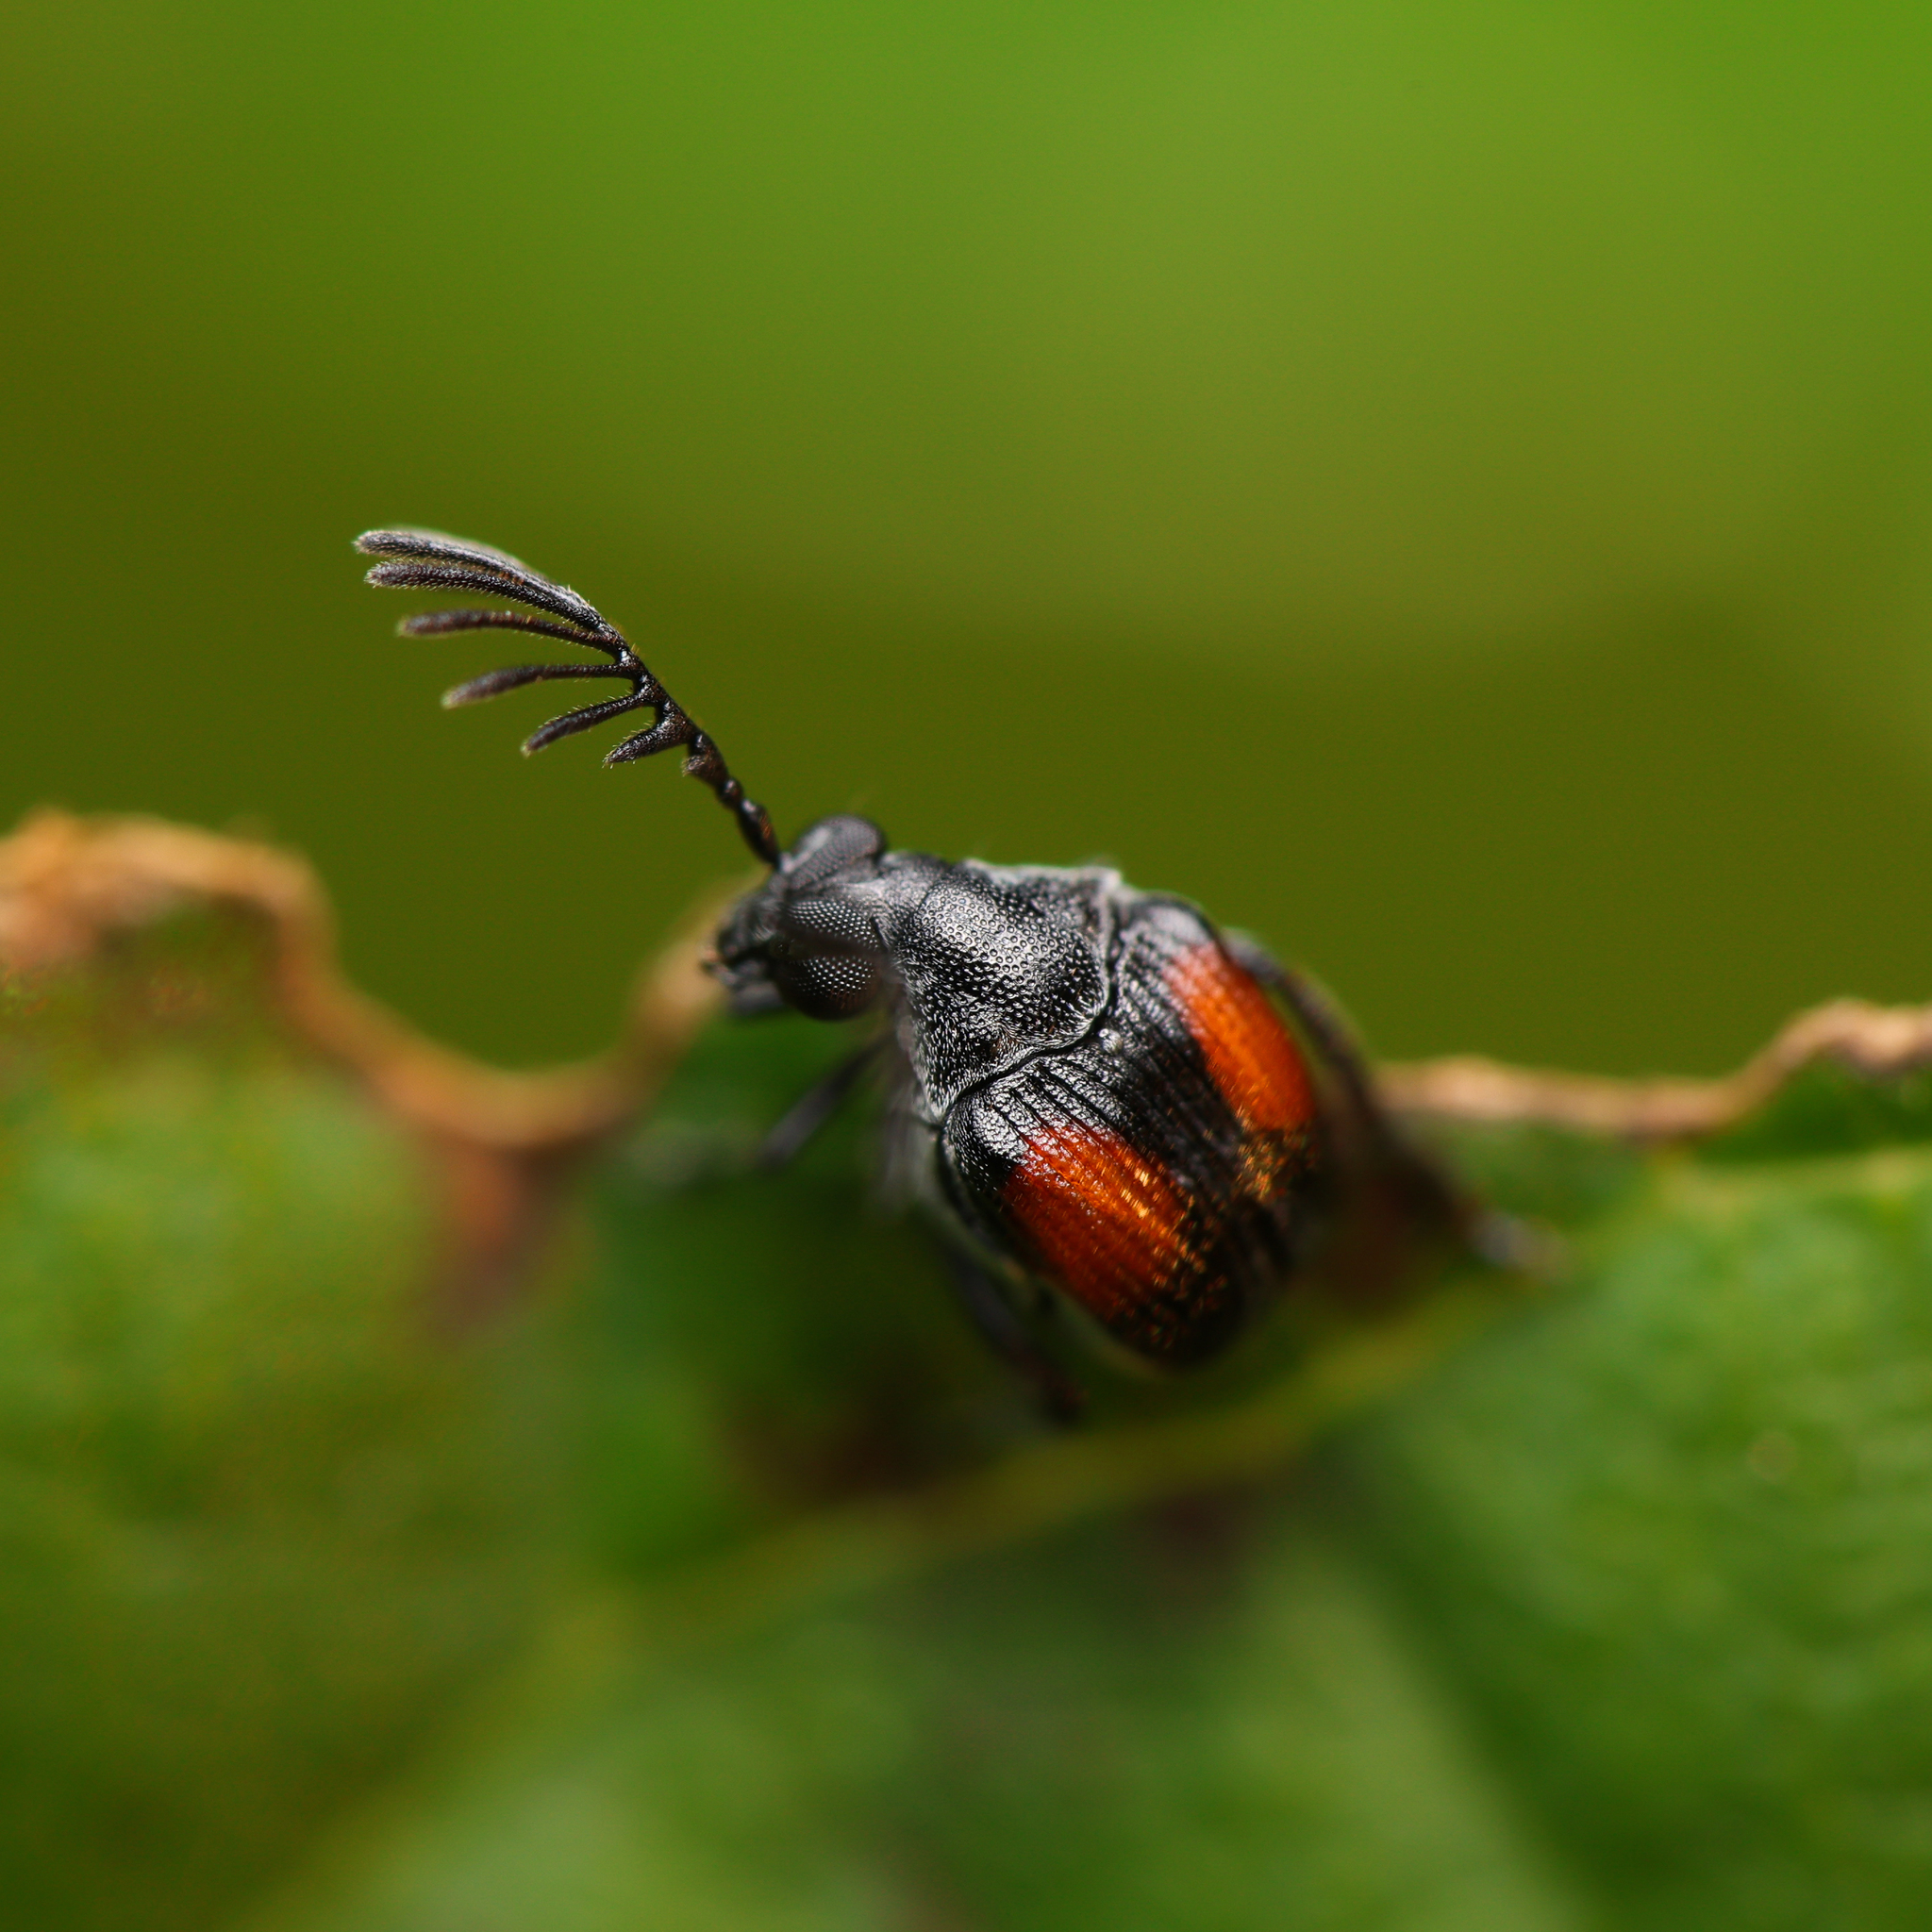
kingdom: Animalia
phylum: Arthropoda
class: Insecta
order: Coleoptera
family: Chrysomelidae
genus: Megacerus
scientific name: Megacerus discoidus
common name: Red megacerus
